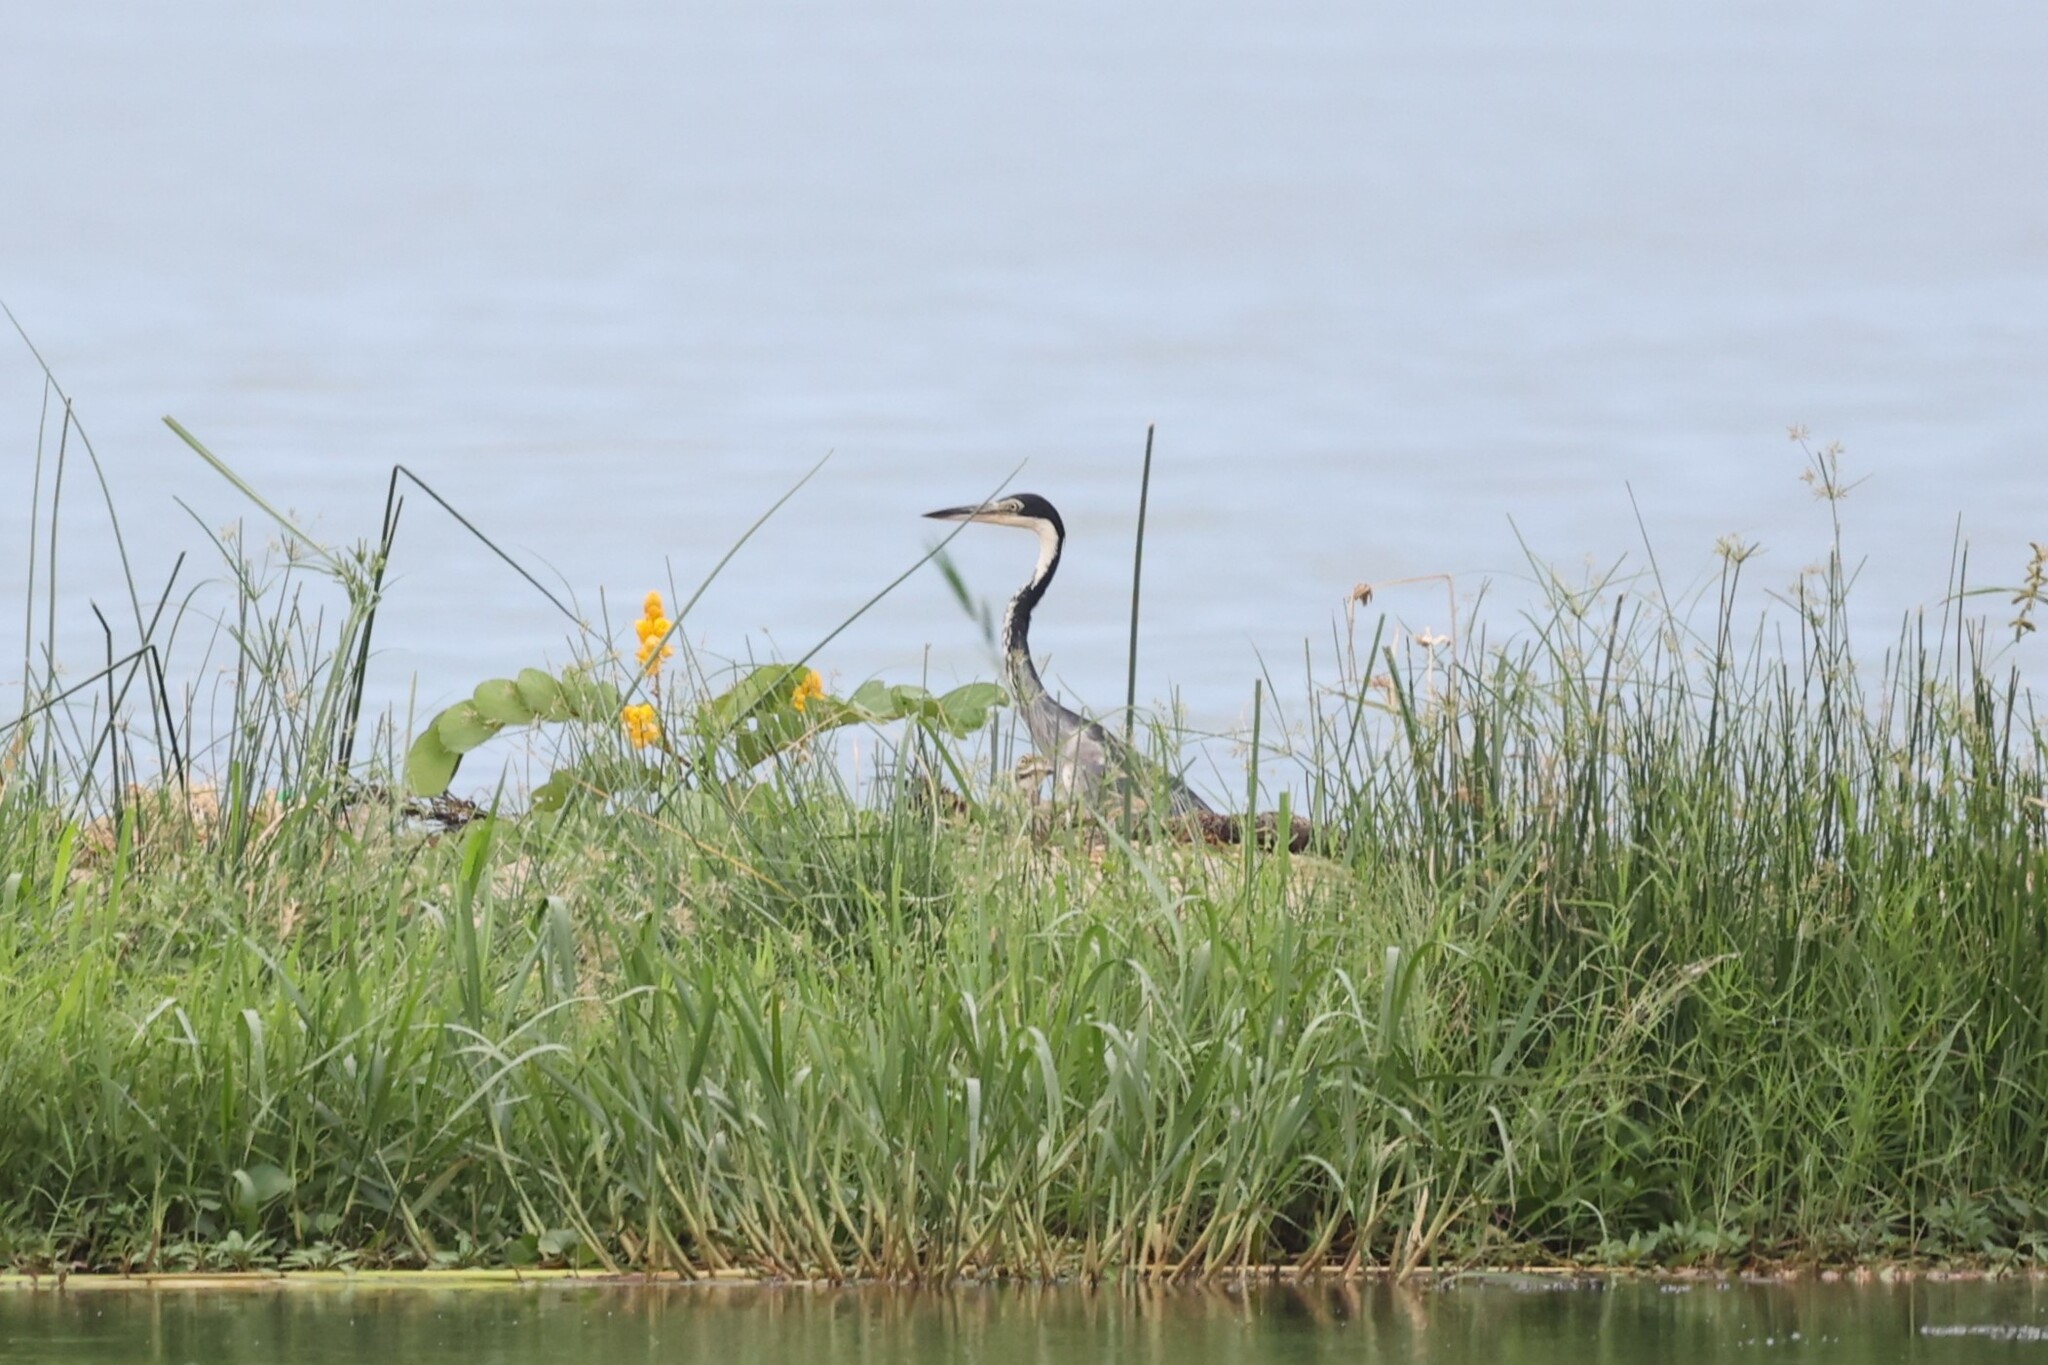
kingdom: Animalia
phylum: Chordata
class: Aves
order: Pelecaniformes
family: Ardeidae
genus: Ardea
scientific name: Ardea melanocephala
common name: Black-headed heron
